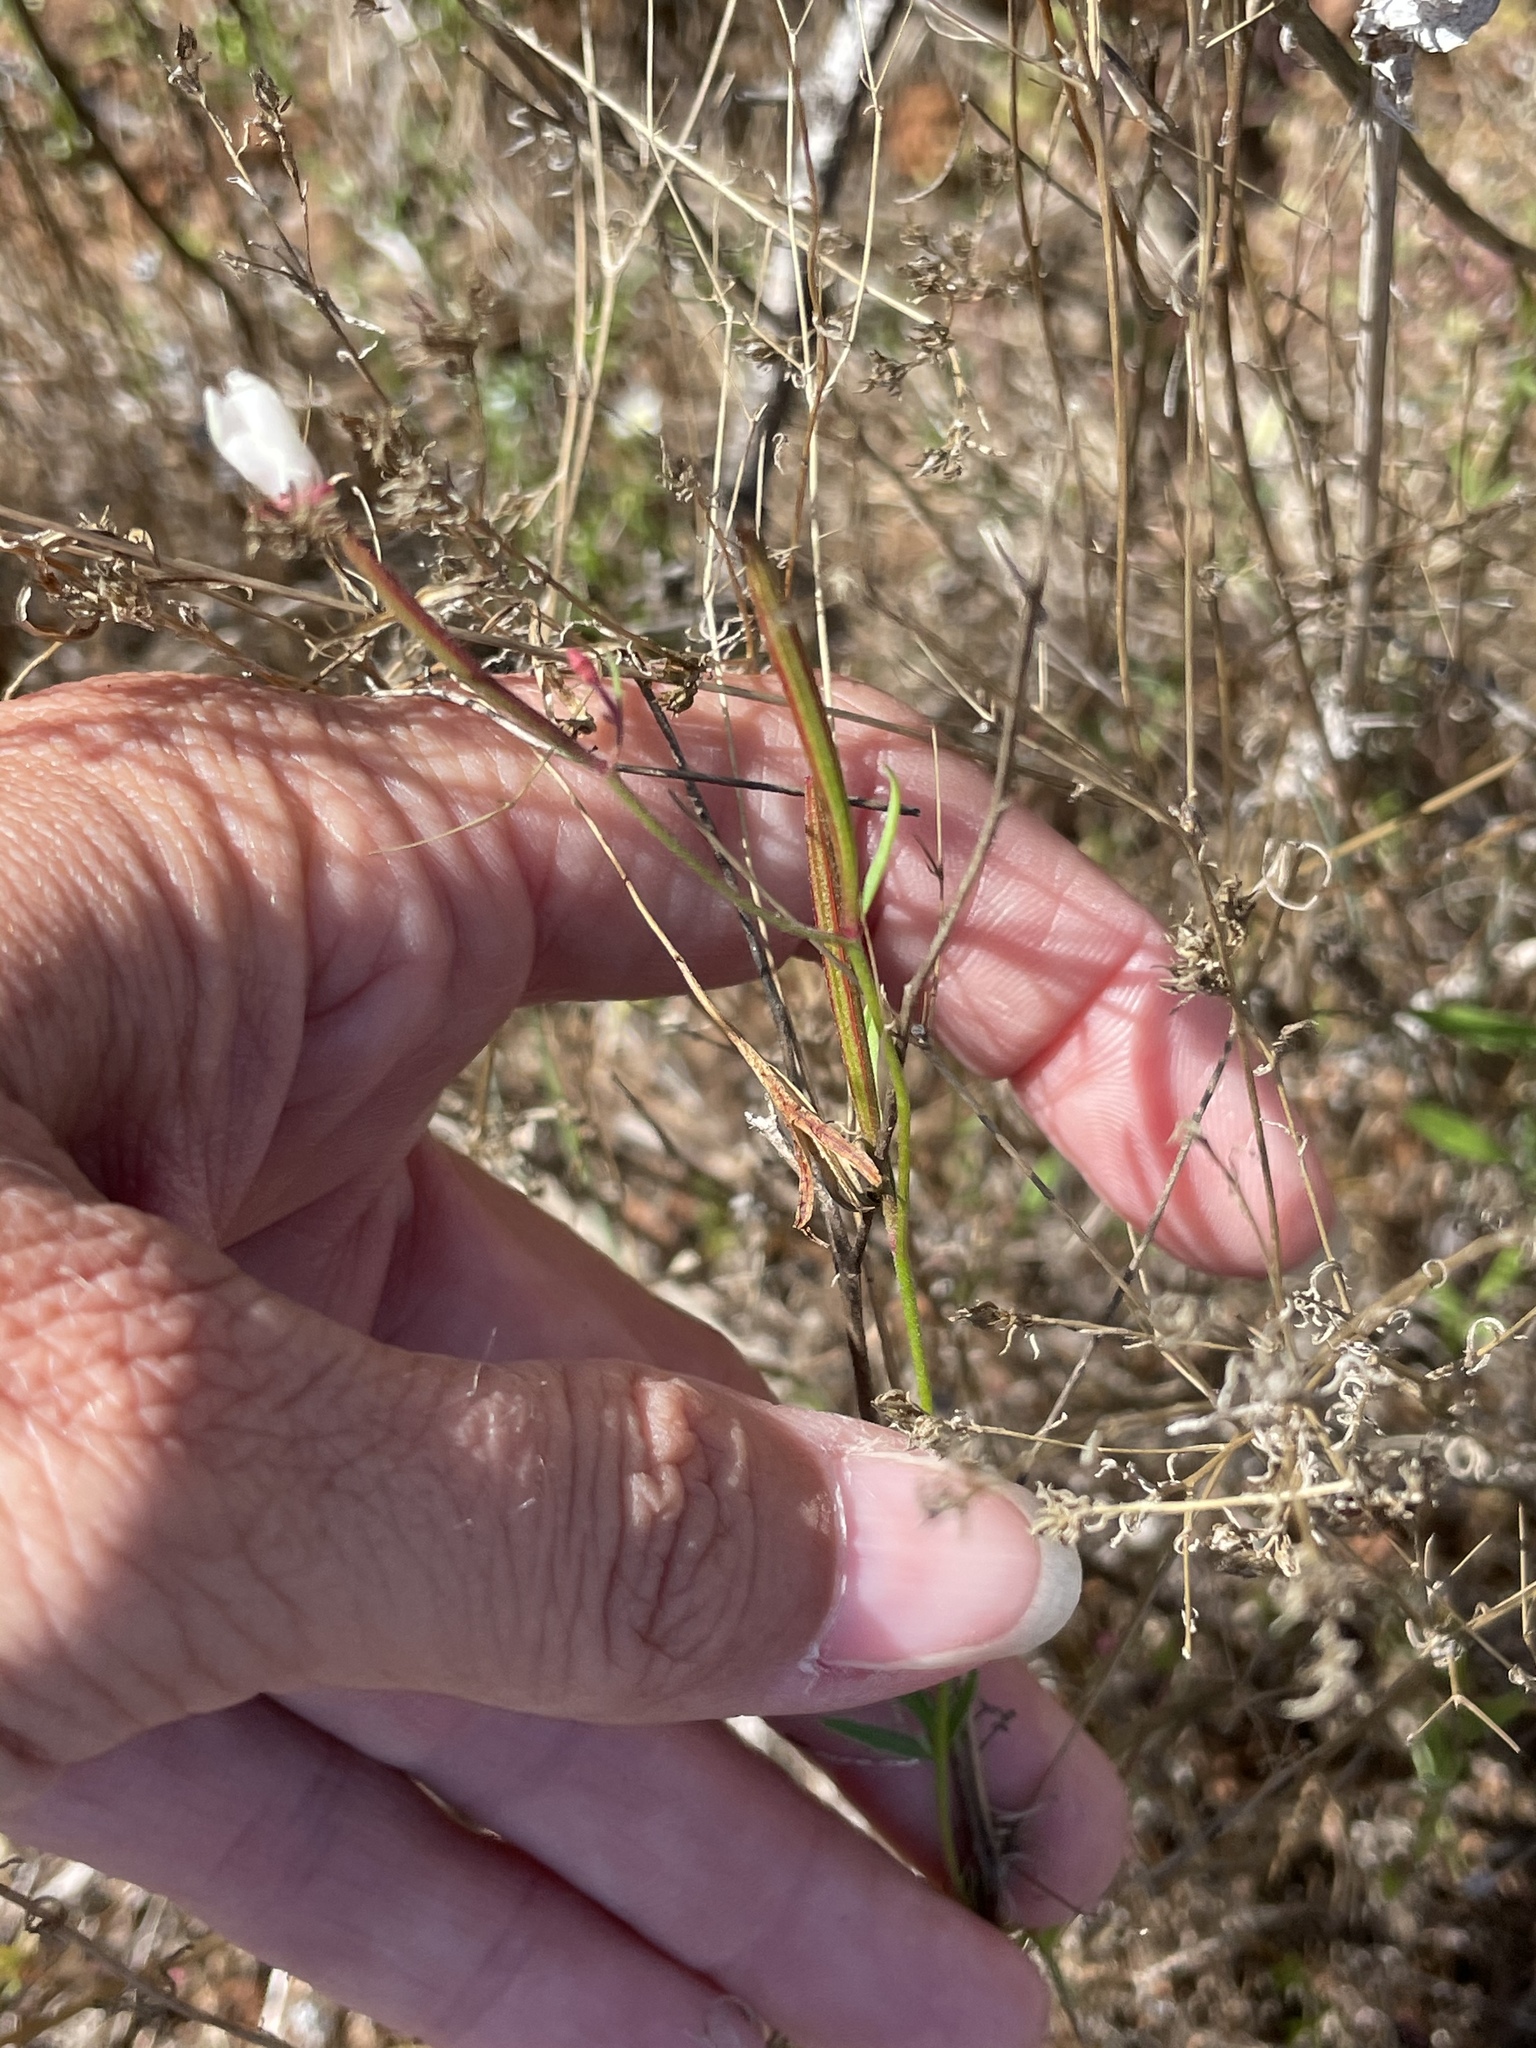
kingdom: Plantae
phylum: Tracheophyta
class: Magnoliopsida
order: Myrtales
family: Onagraceae
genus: Clarkia
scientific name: Clarkia epilobioides
